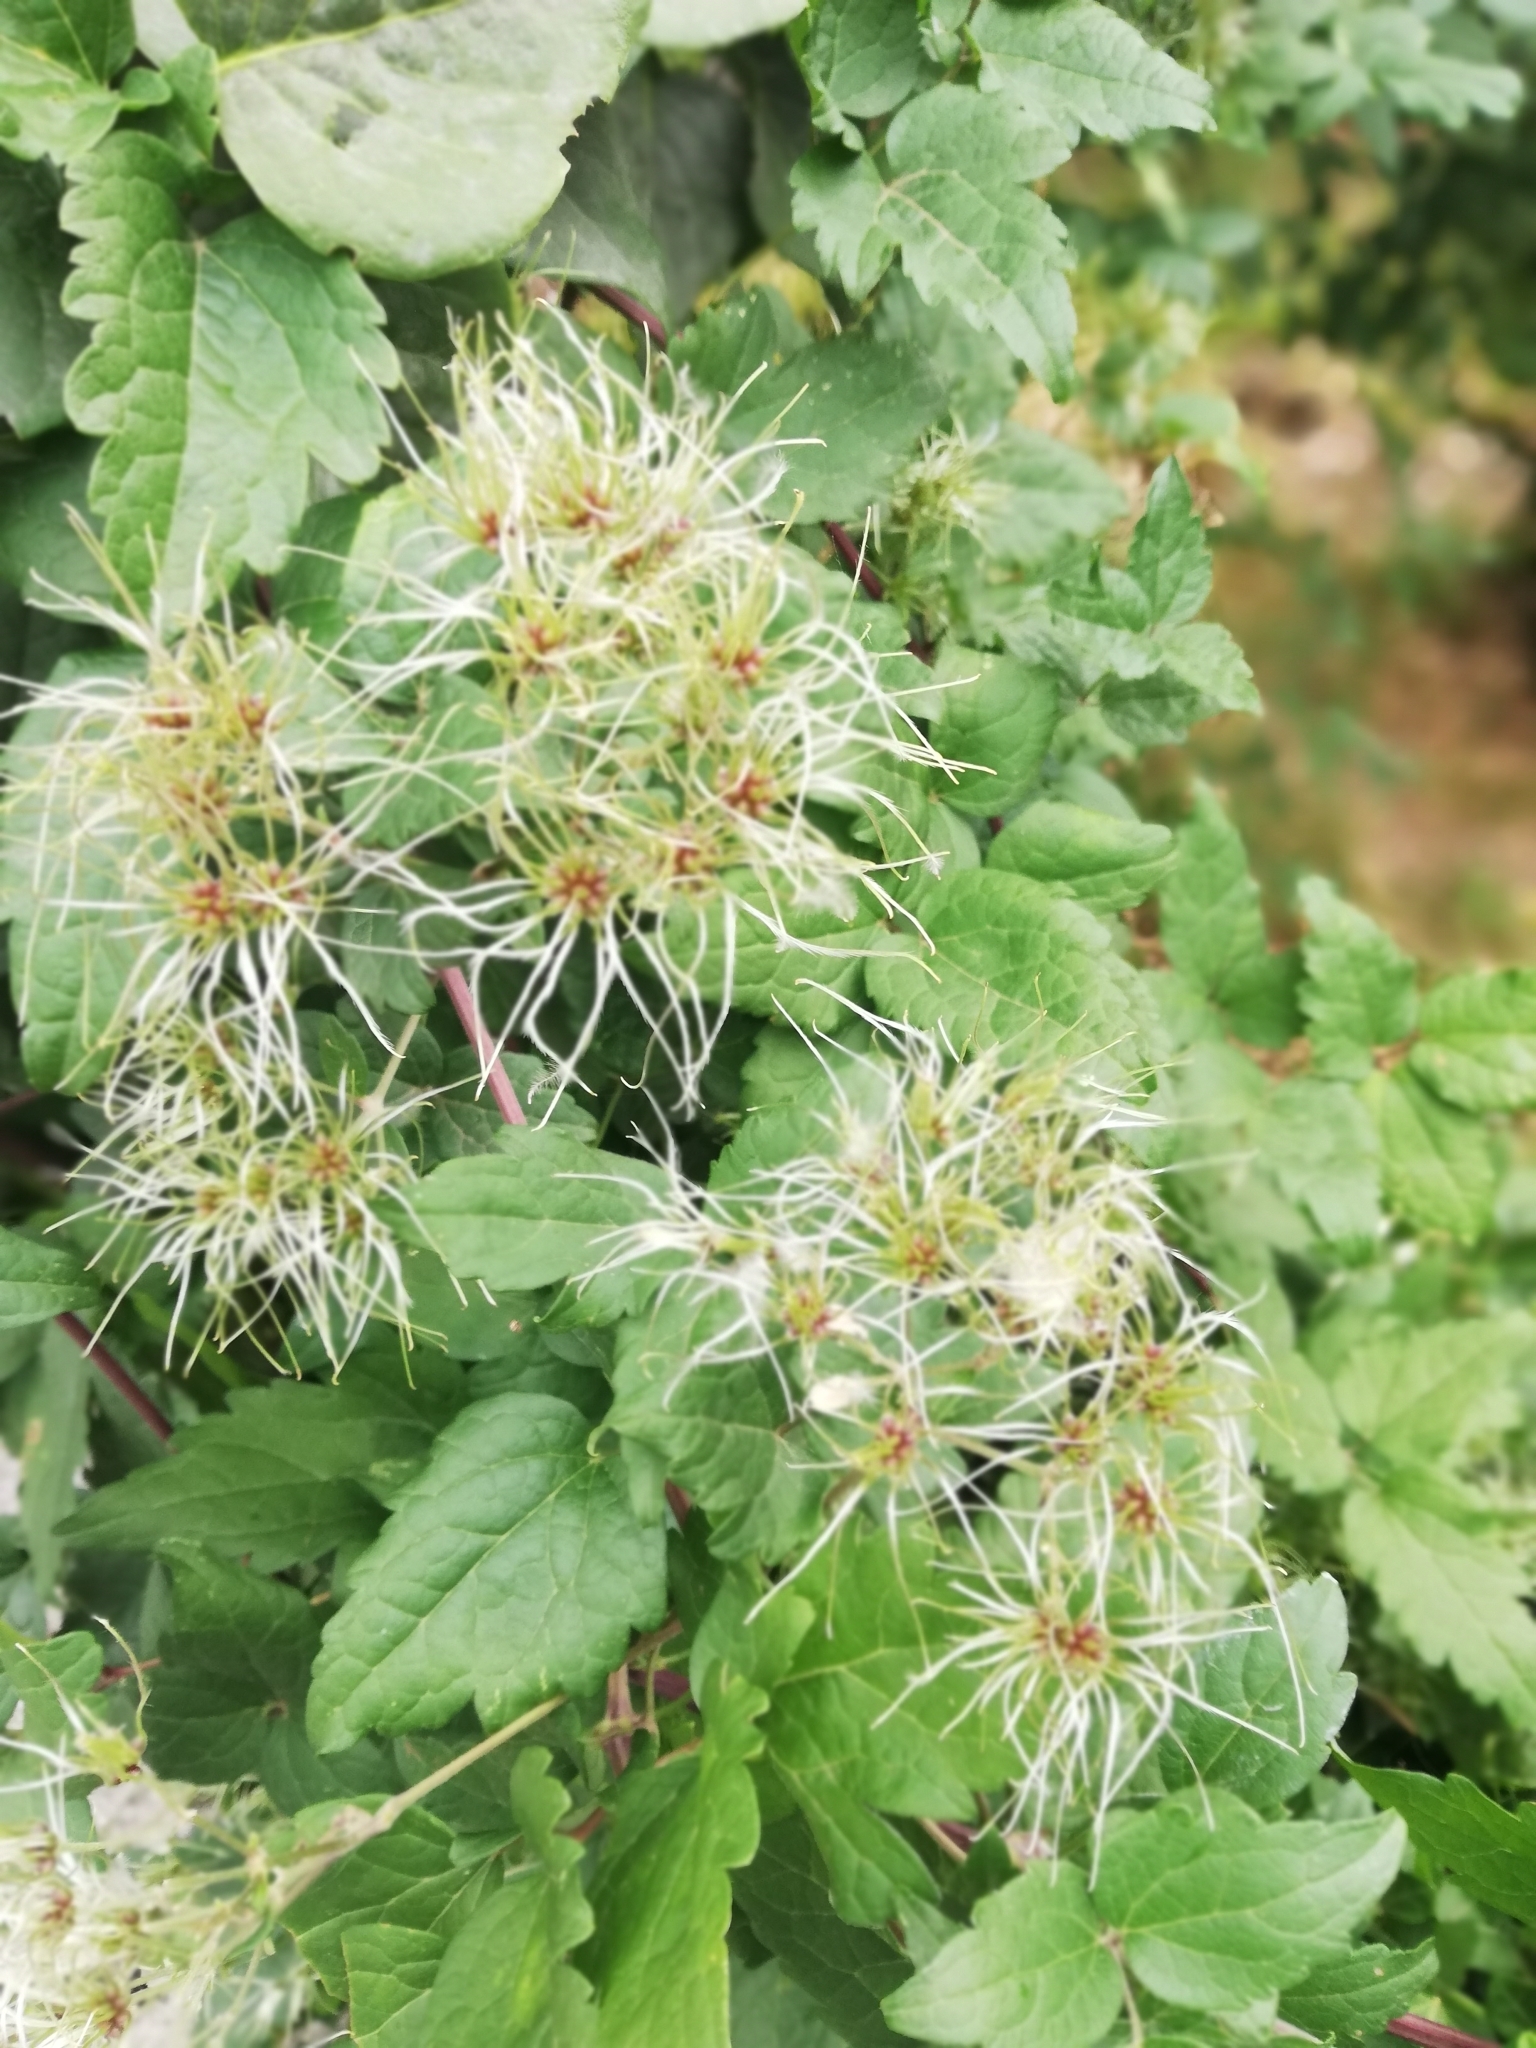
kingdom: Plantae
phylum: Tracheophyta
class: Magnoliopsida
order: Ranunculales
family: Ranunculaceae
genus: Clematis
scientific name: Clematis vitalba
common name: Evergreen clematis
